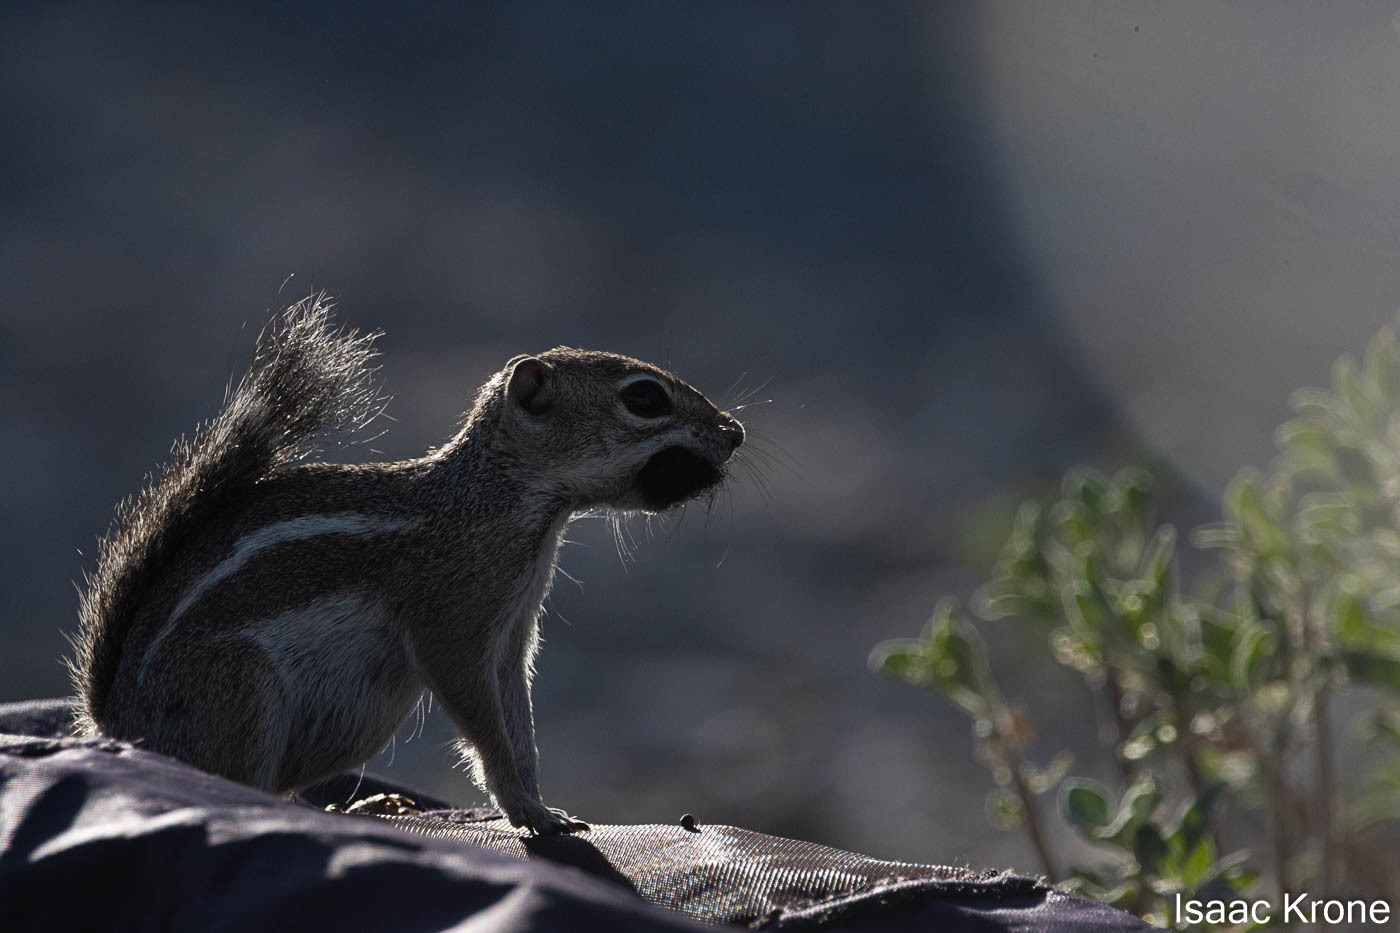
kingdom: Animalia
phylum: Chordata
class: Mammalia
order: Rodentia
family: Sciuridae
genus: Ammospermophilus
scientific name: Ammospermophilus harrisii
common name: Harris's antelope squirrel
